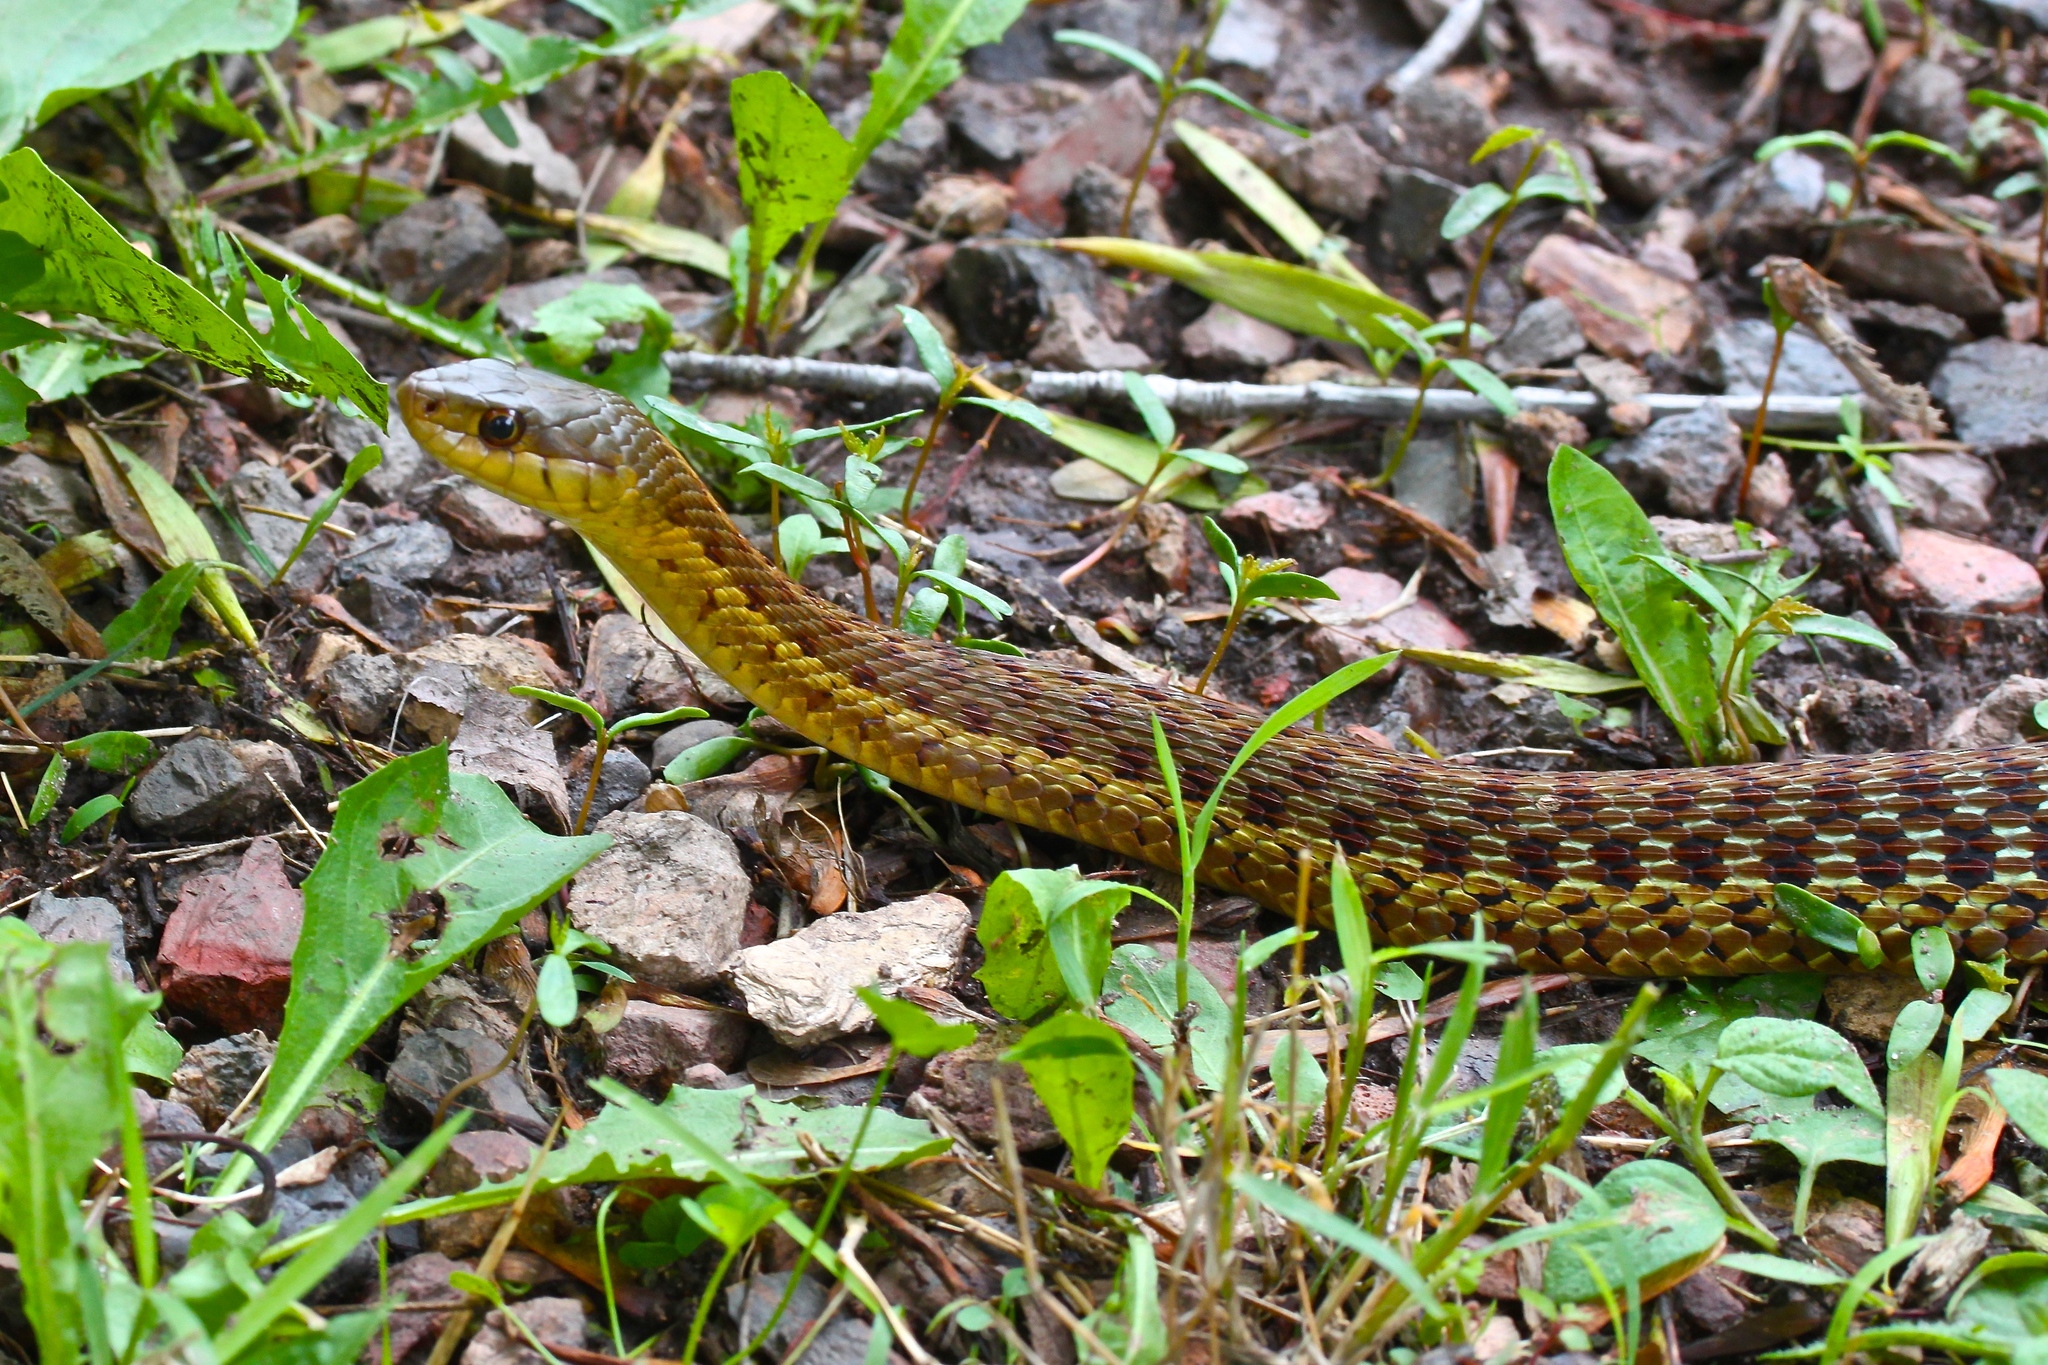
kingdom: Animalia
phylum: Chordata
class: Squamata
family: Colubridae
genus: Thamnophis
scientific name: Thamnophis sirtalis
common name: Common garter snake
